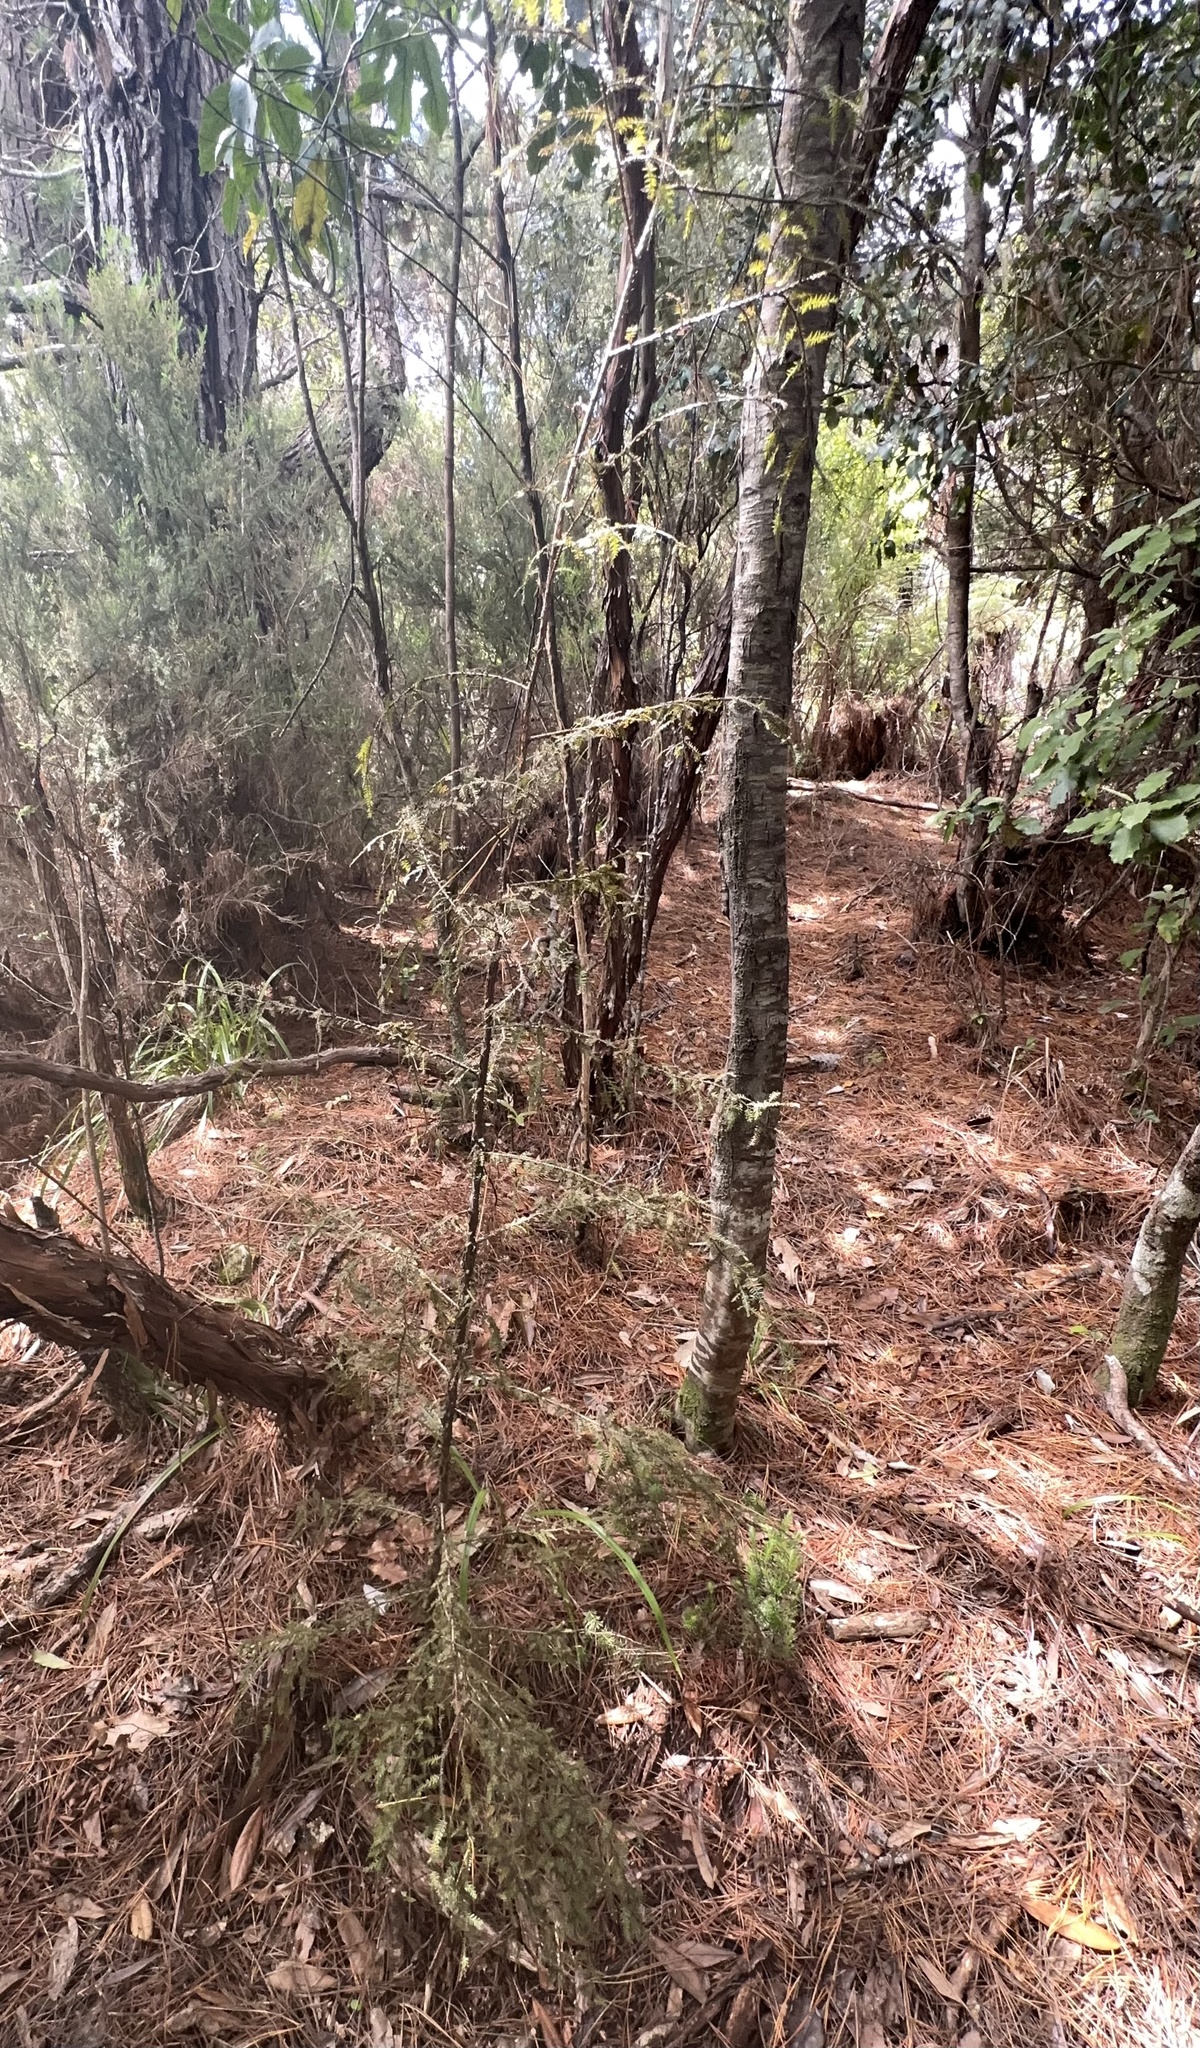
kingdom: Plantae
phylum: Tracheophyta
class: Pinopsida
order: Pinales
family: Podocarpaceae
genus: Dacrycarpus
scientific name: Dacrycarpus dacrydioides
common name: White pine
